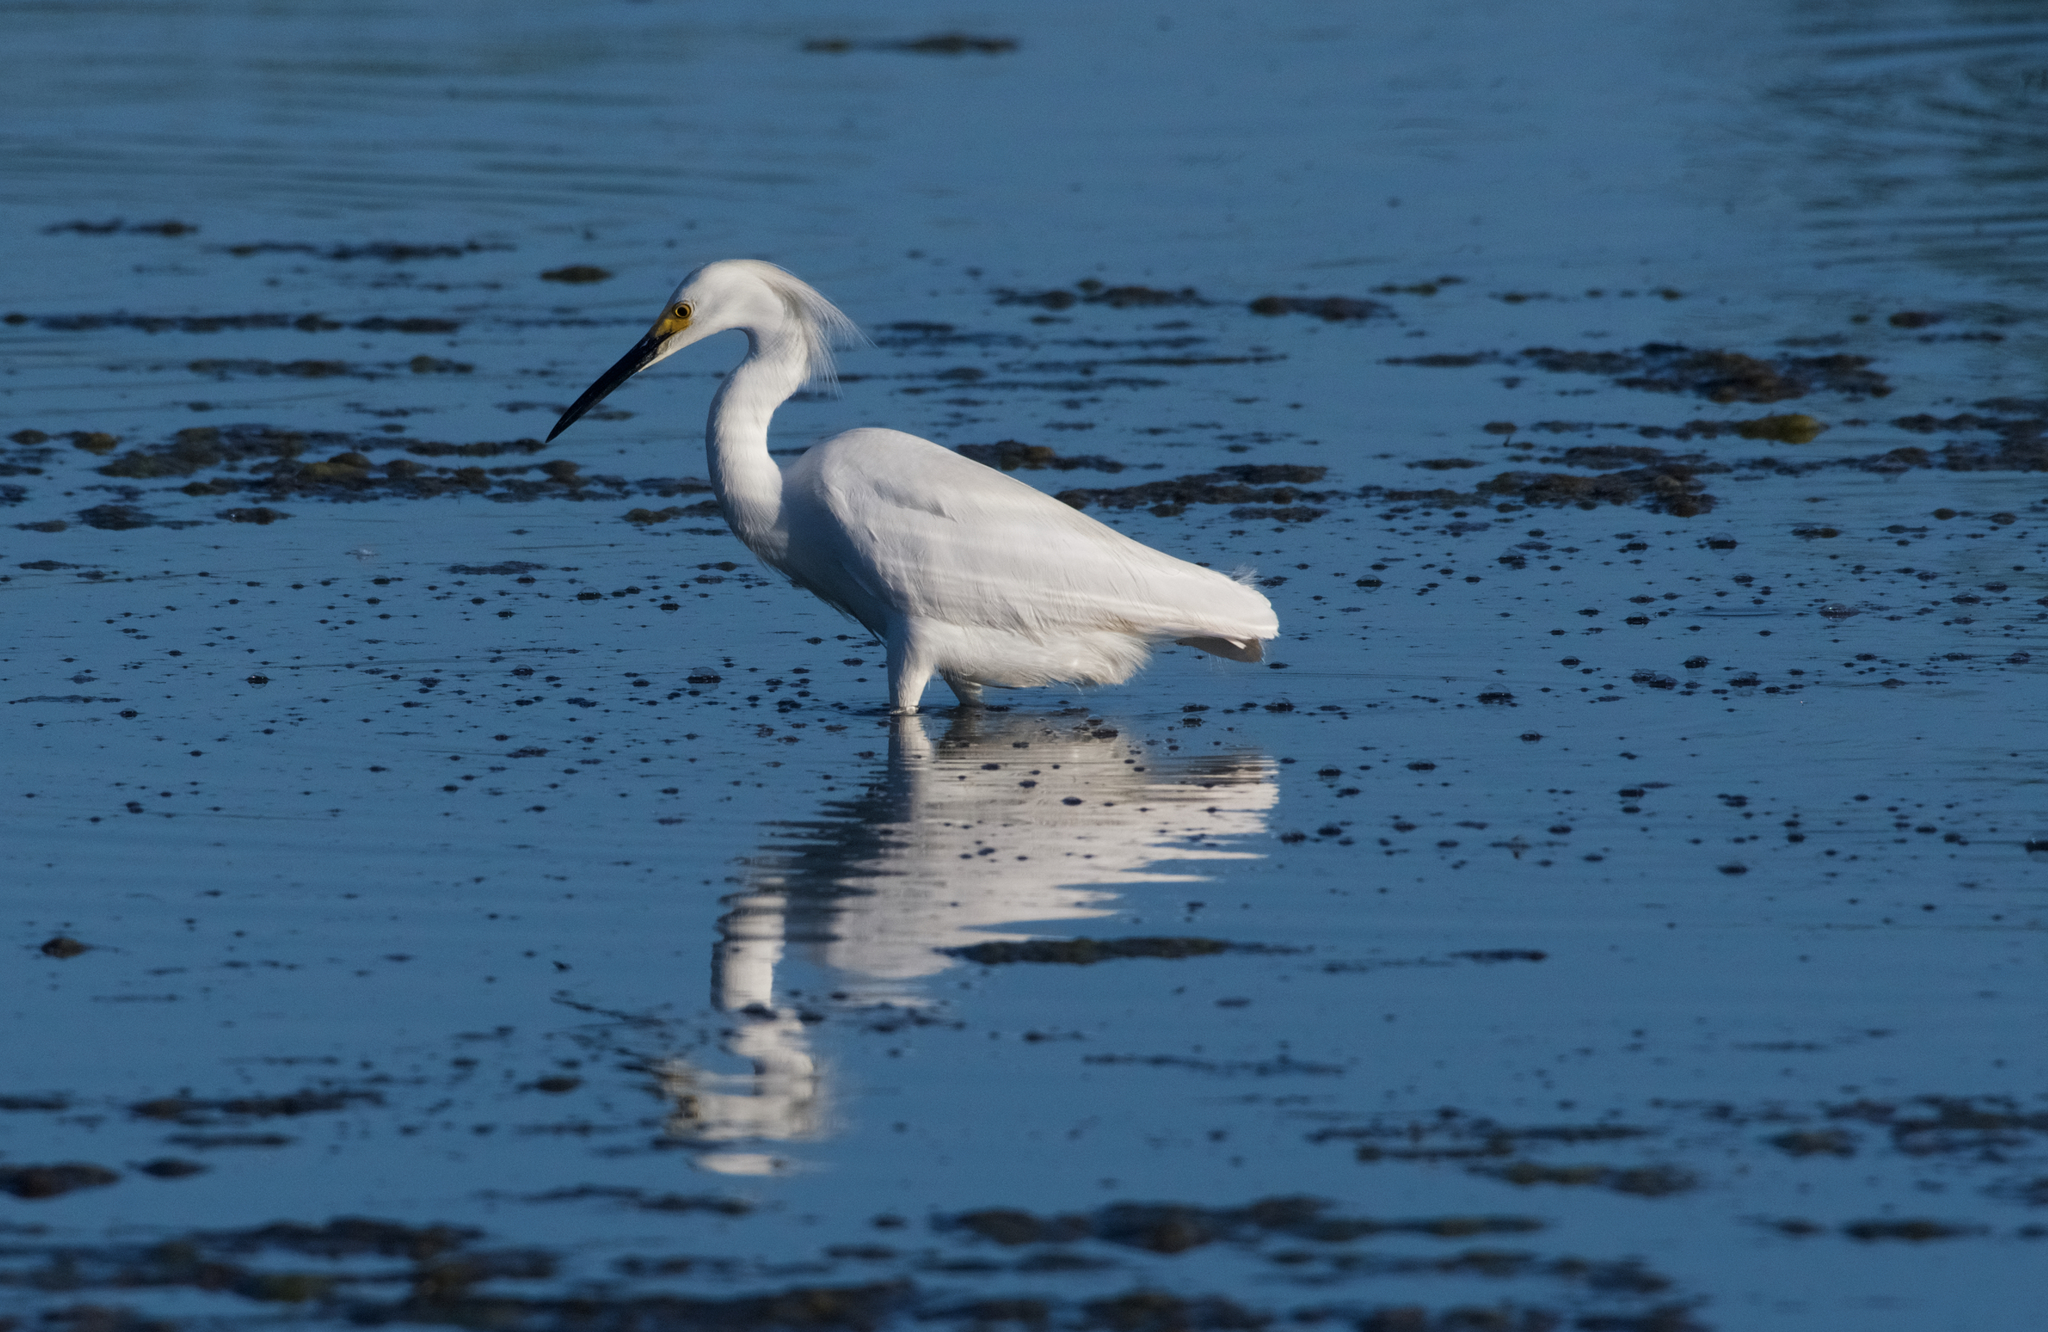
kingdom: Animalia
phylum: Chordata
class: Aves
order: Pelecaniformes
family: Ardeidae
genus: Egretta
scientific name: Egretta thula
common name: Snowy egret
